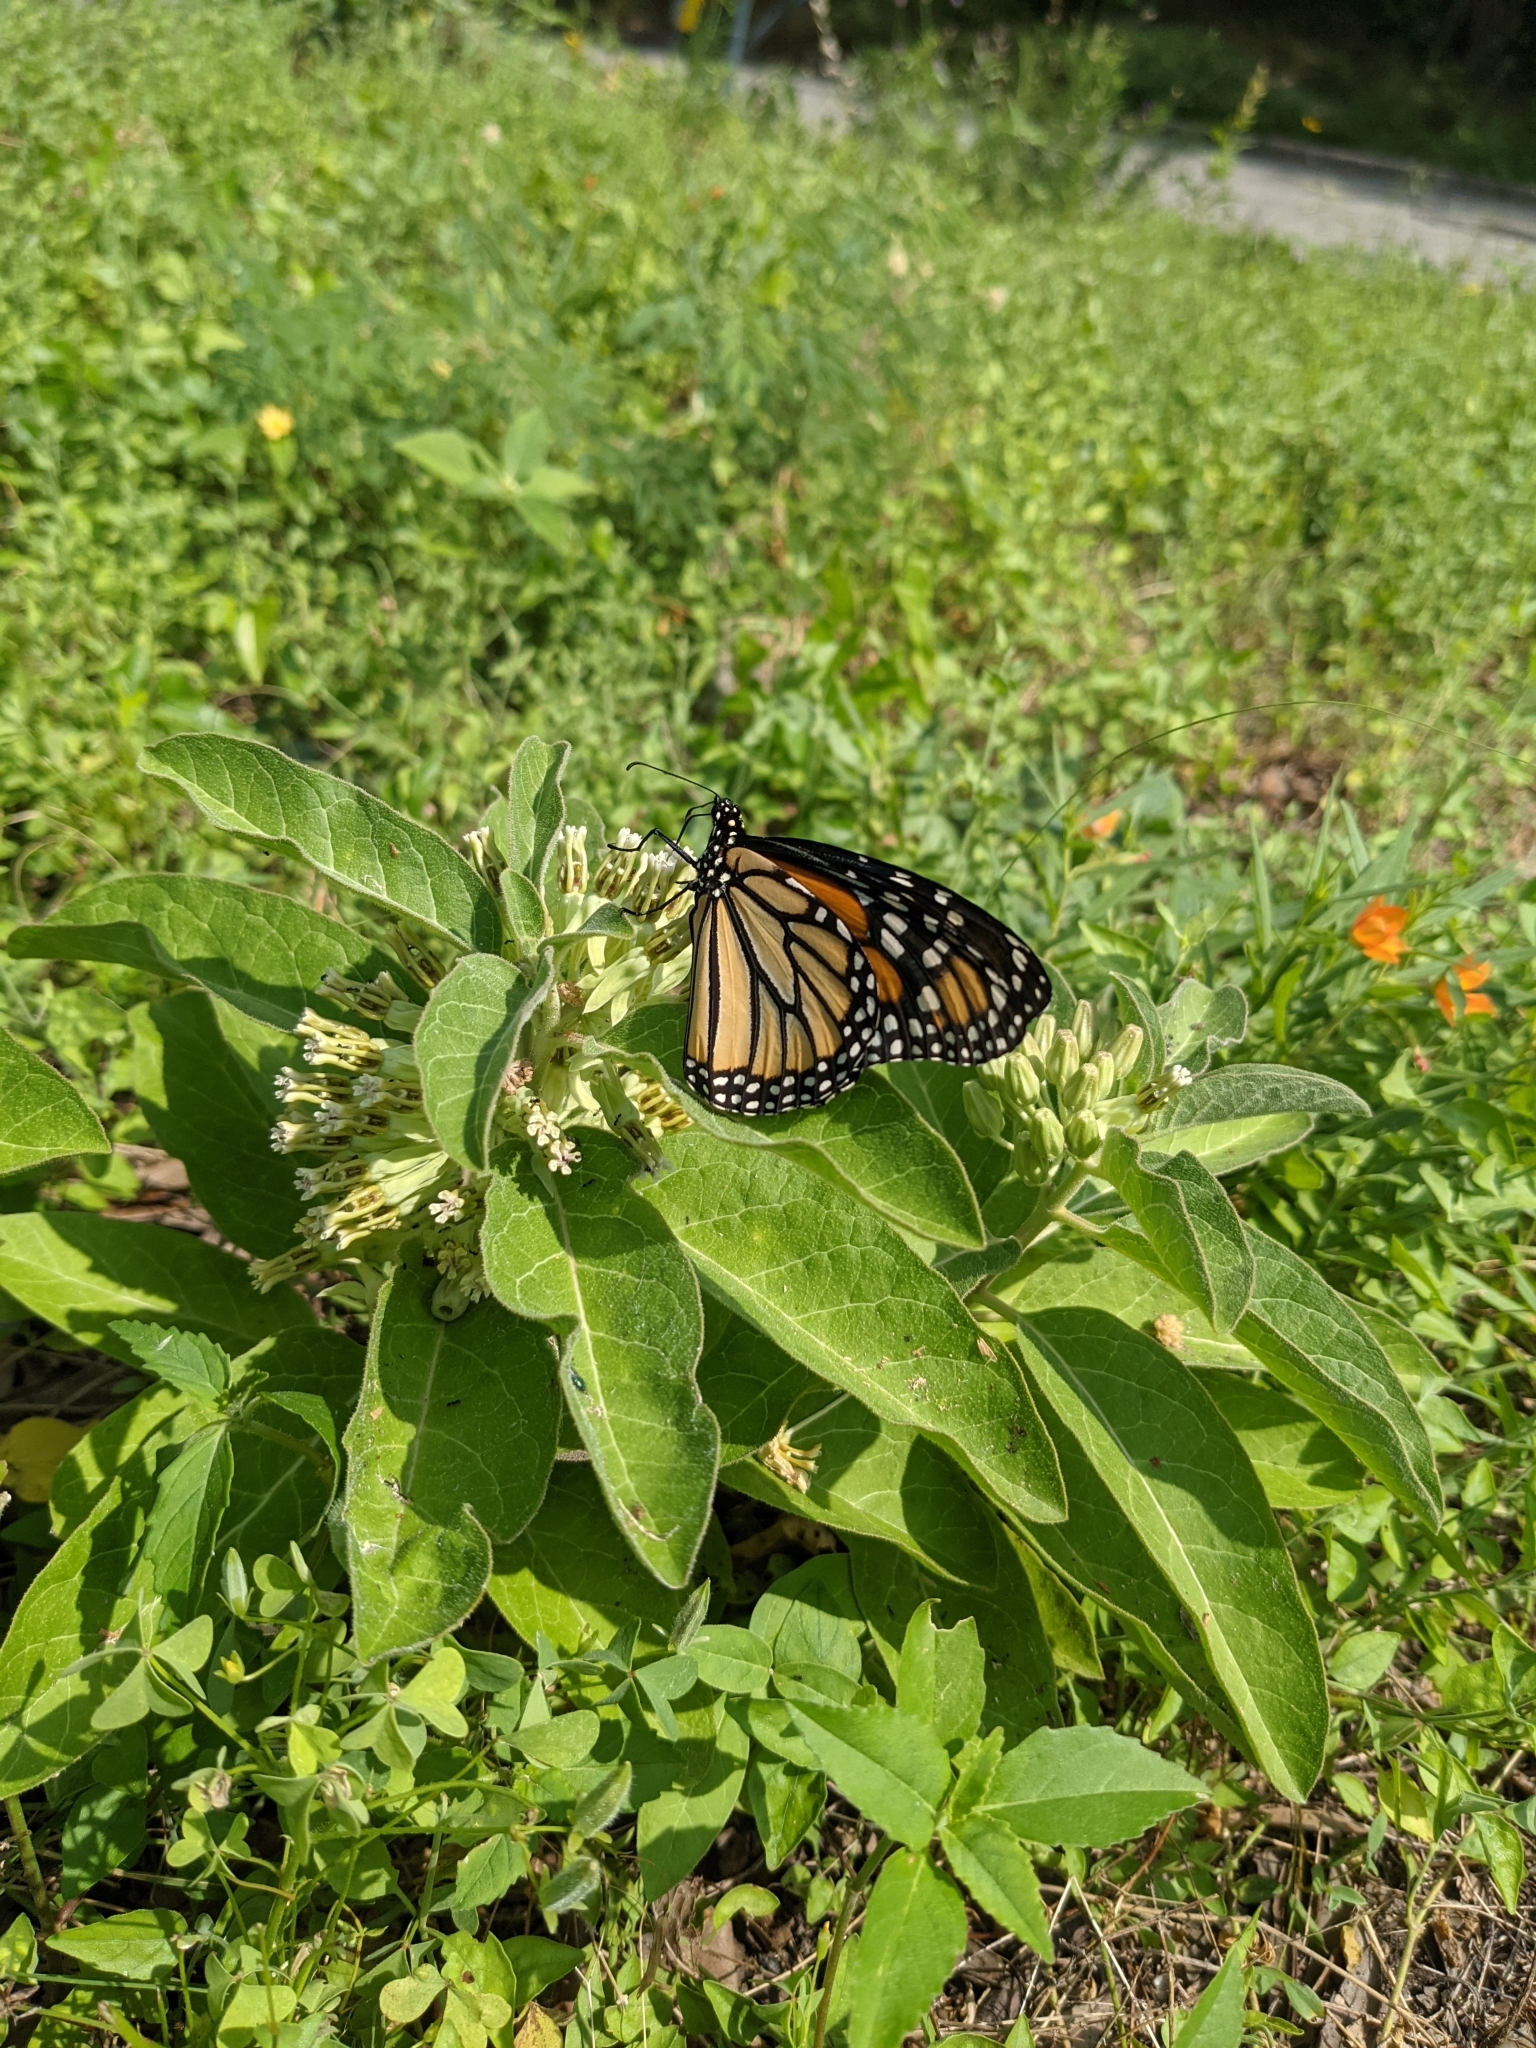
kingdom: Animalia
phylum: Arthropoda
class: Insecta
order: Lepidoptera
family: Nymphalidae
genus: Danaus
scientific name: Danaus plexippus
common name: Monarch
